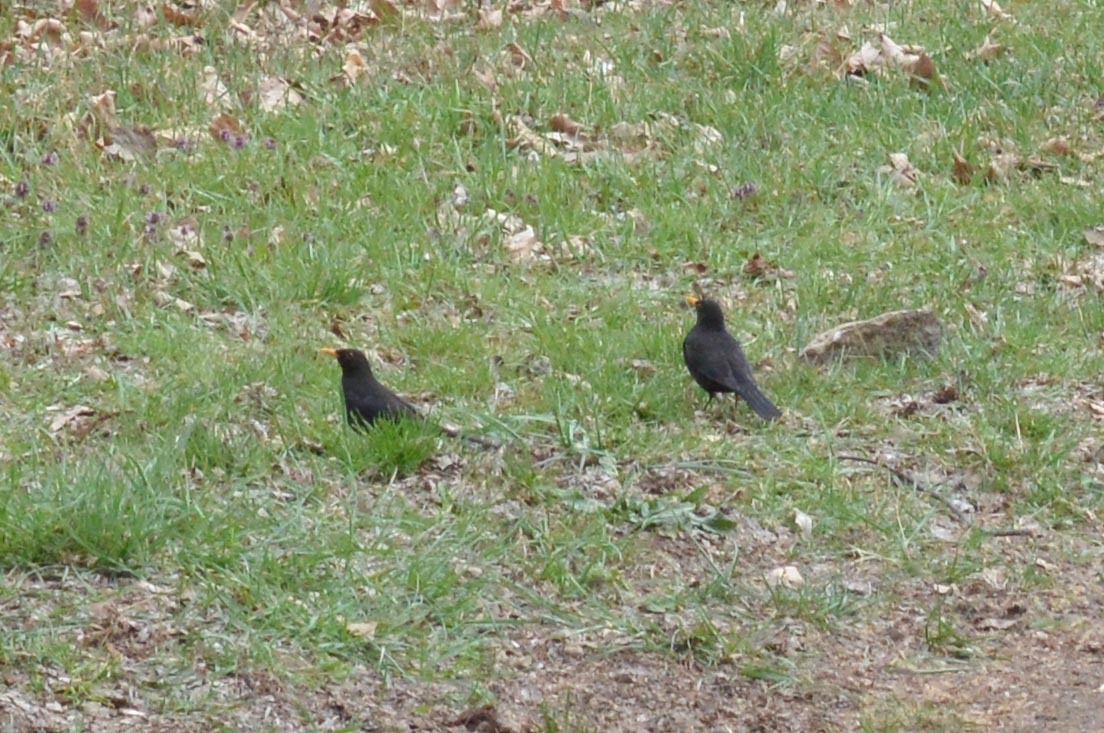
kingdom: Animalia
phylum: Chordata
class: Aves
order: Passeriformes
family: Turdidae
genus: Turdus
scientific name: Turdus merula
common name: Common blackbird
